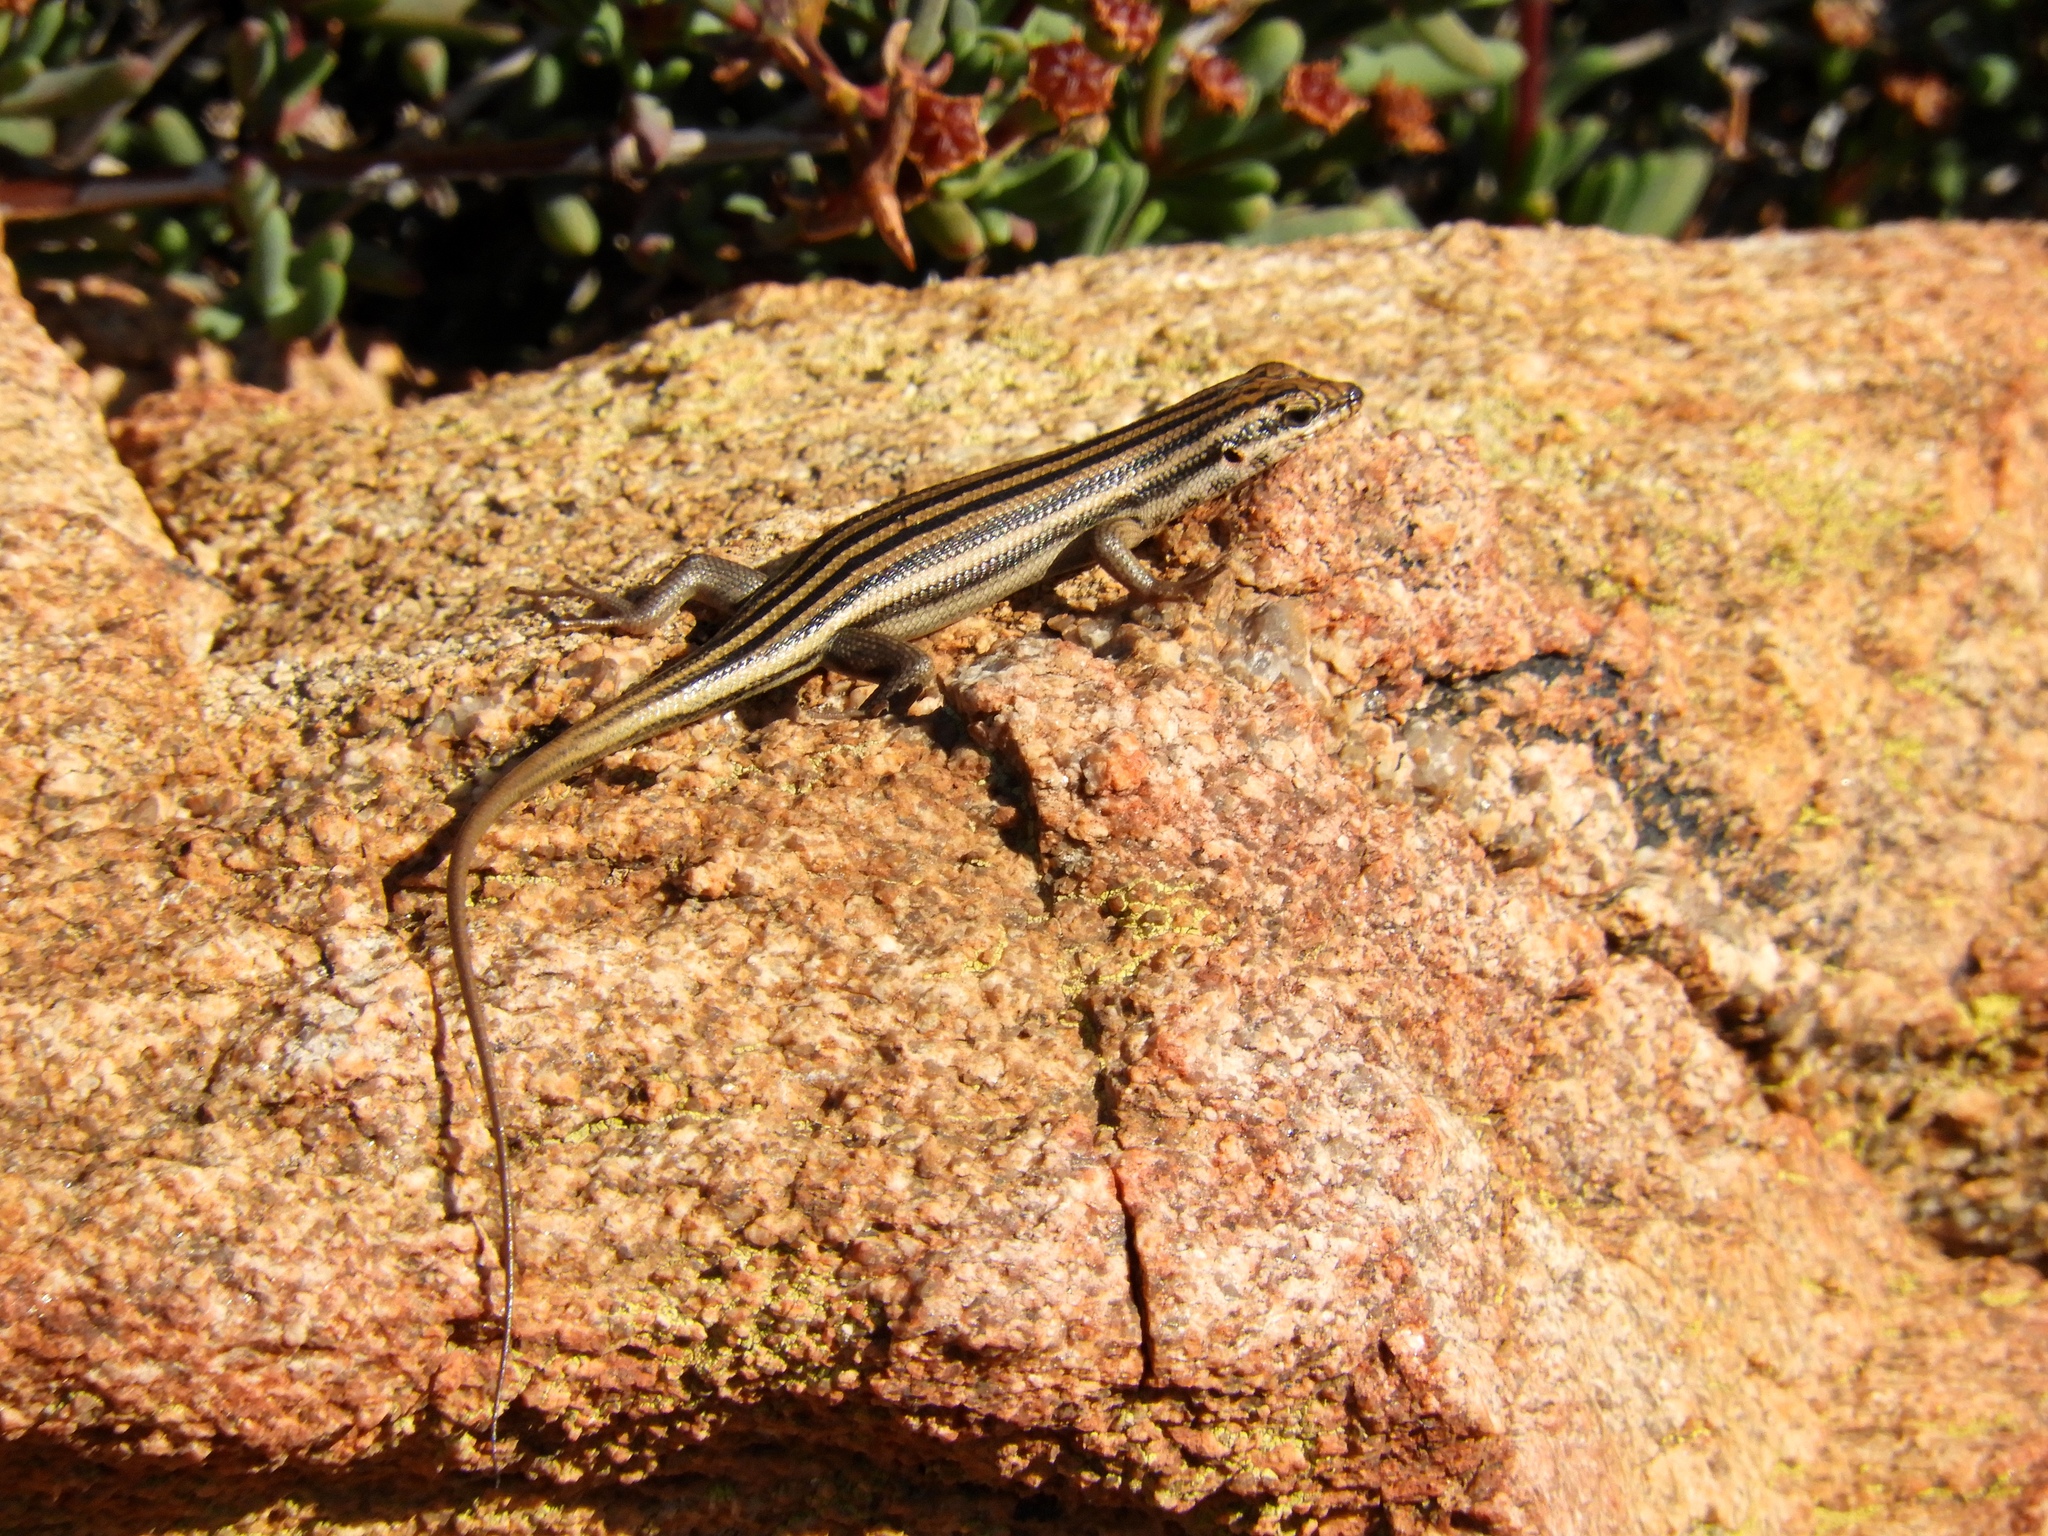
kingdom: Animalia
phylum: Chordata
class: Squamata
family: Scincidae
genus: Trachylepis
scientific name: Trachylepis sulcata
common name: Western rock skink
